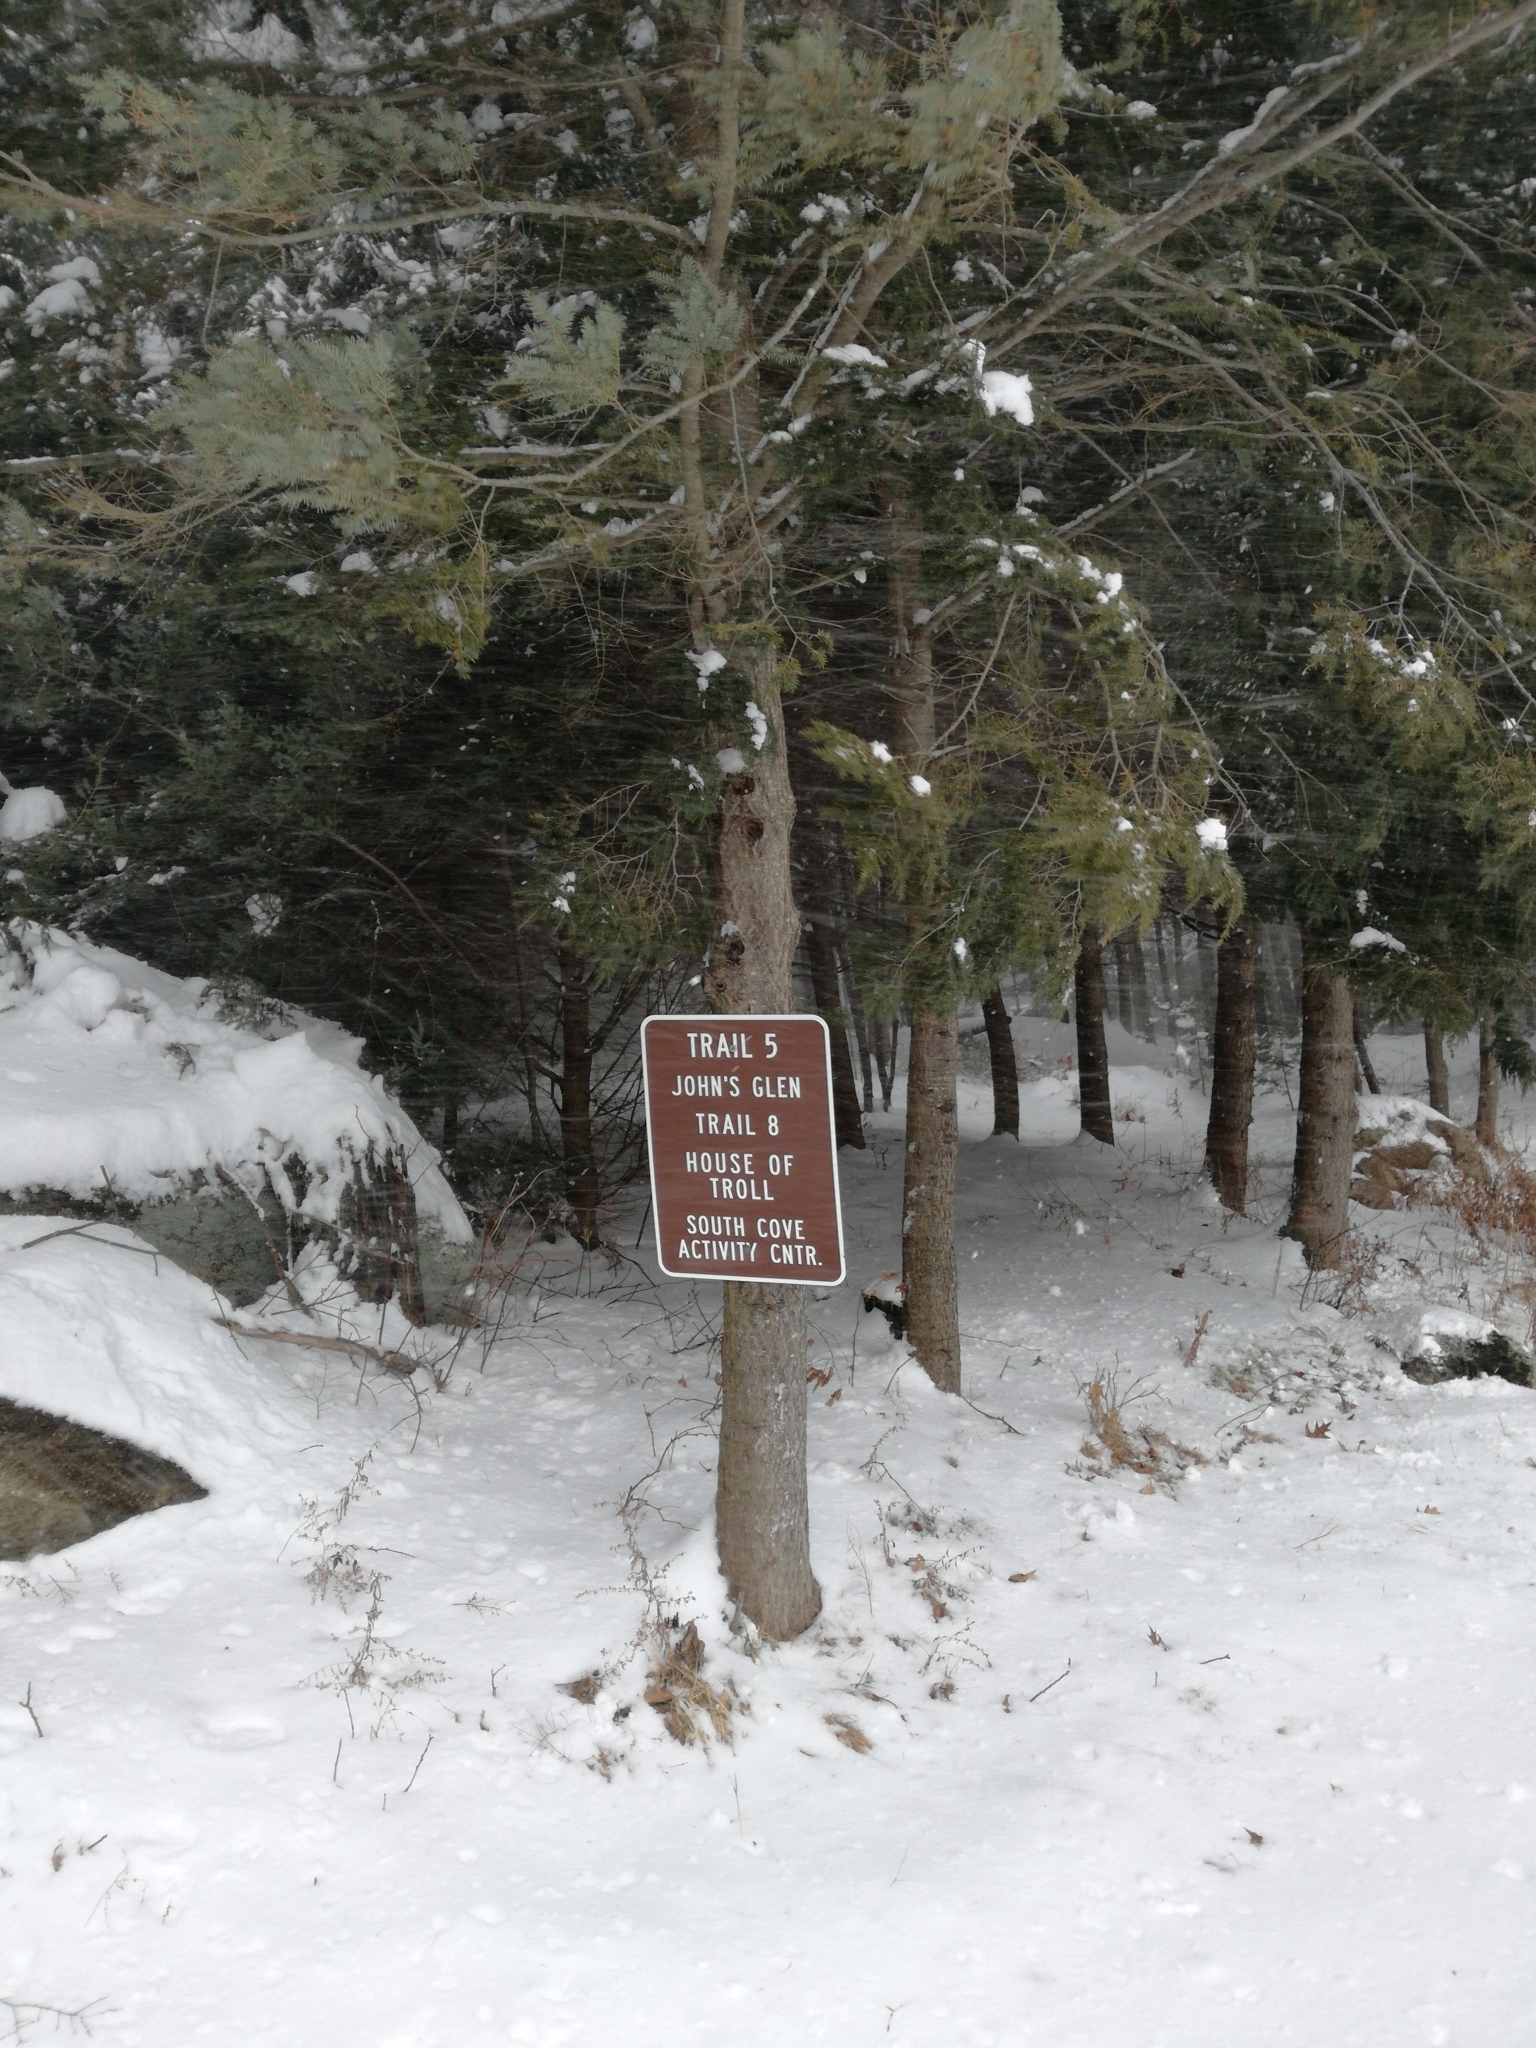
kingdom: Plantae
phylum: Tracheophyta
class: Pinopsida
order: Pinales
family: Pinaceae
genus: Tsuga
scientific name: Tsuga canadensis
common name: Eastern hemlock
